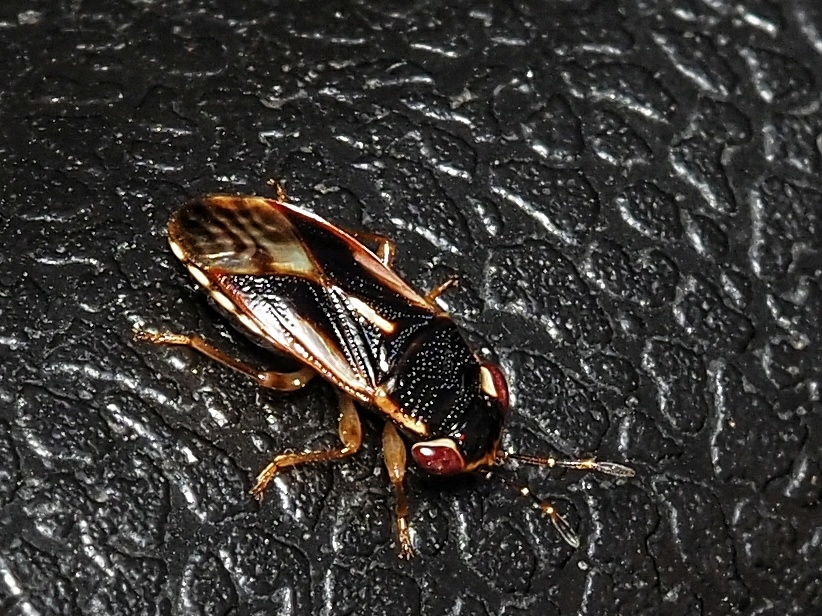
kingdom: Animalia
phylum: Arthropoda
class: Insecta
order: Hemiptera
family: Geocoridae
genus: Stylogeocoris
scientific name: Stylogeocoris elongatus
